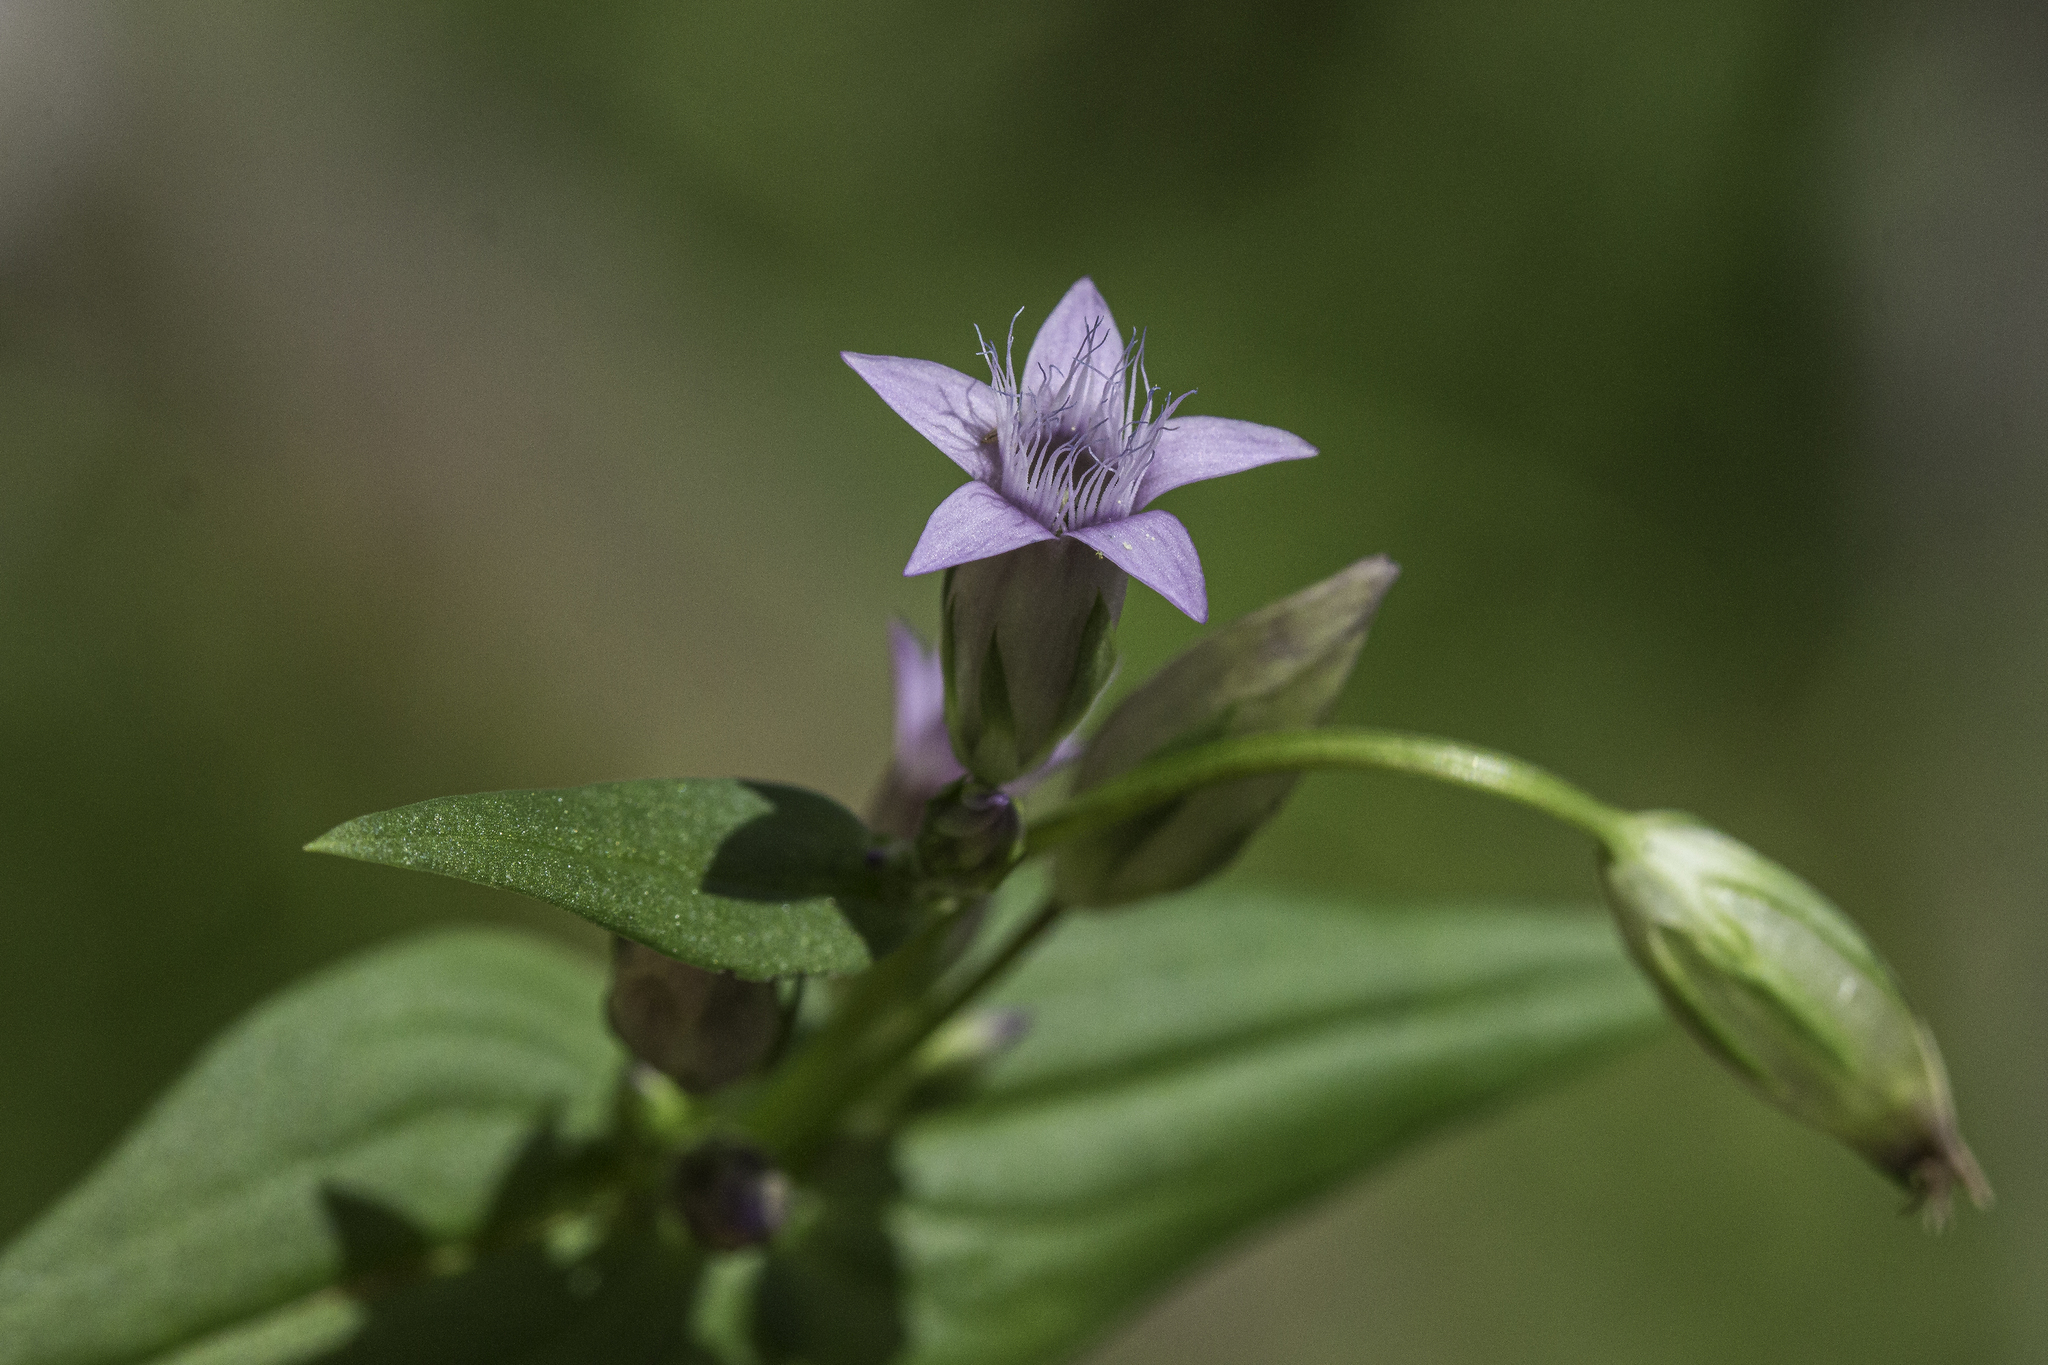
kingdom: Plantae
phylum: Tracheophyta
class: Magnoliopsida
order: Gentianales
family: Gentianaceae
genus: Gentianella
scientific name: Gentianella amarella
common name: Autumn gentian
